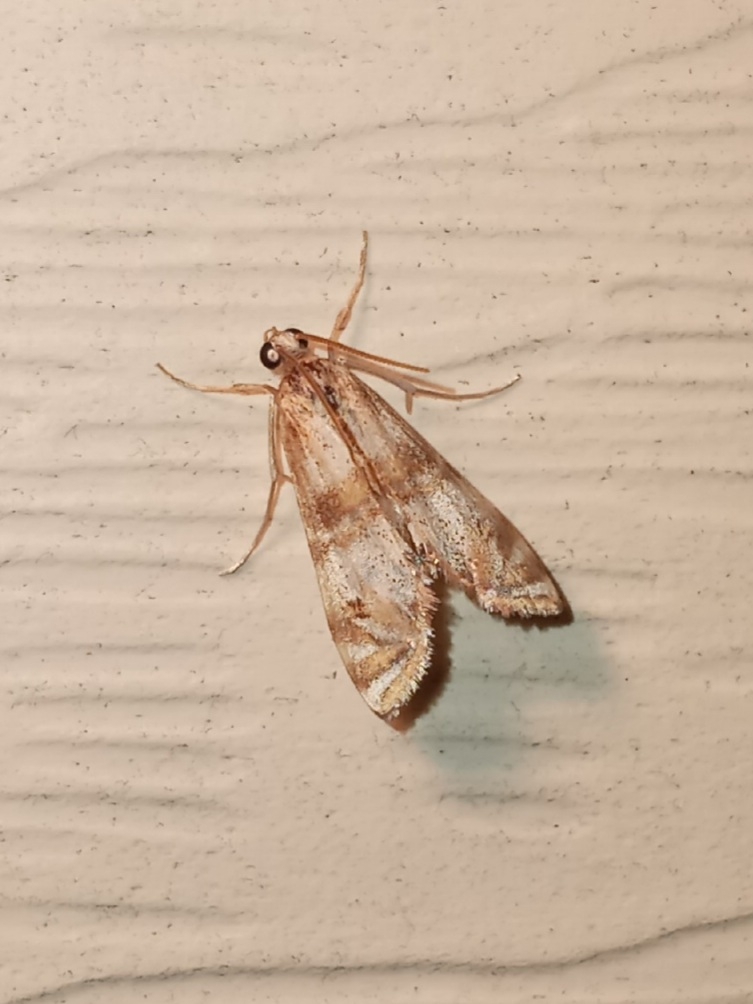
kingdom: Animalia
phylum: Arthropoda
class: Insecta
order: Lepidoptera
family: Crambidae
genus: Petrophila
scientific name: Petrophila bifascialis
